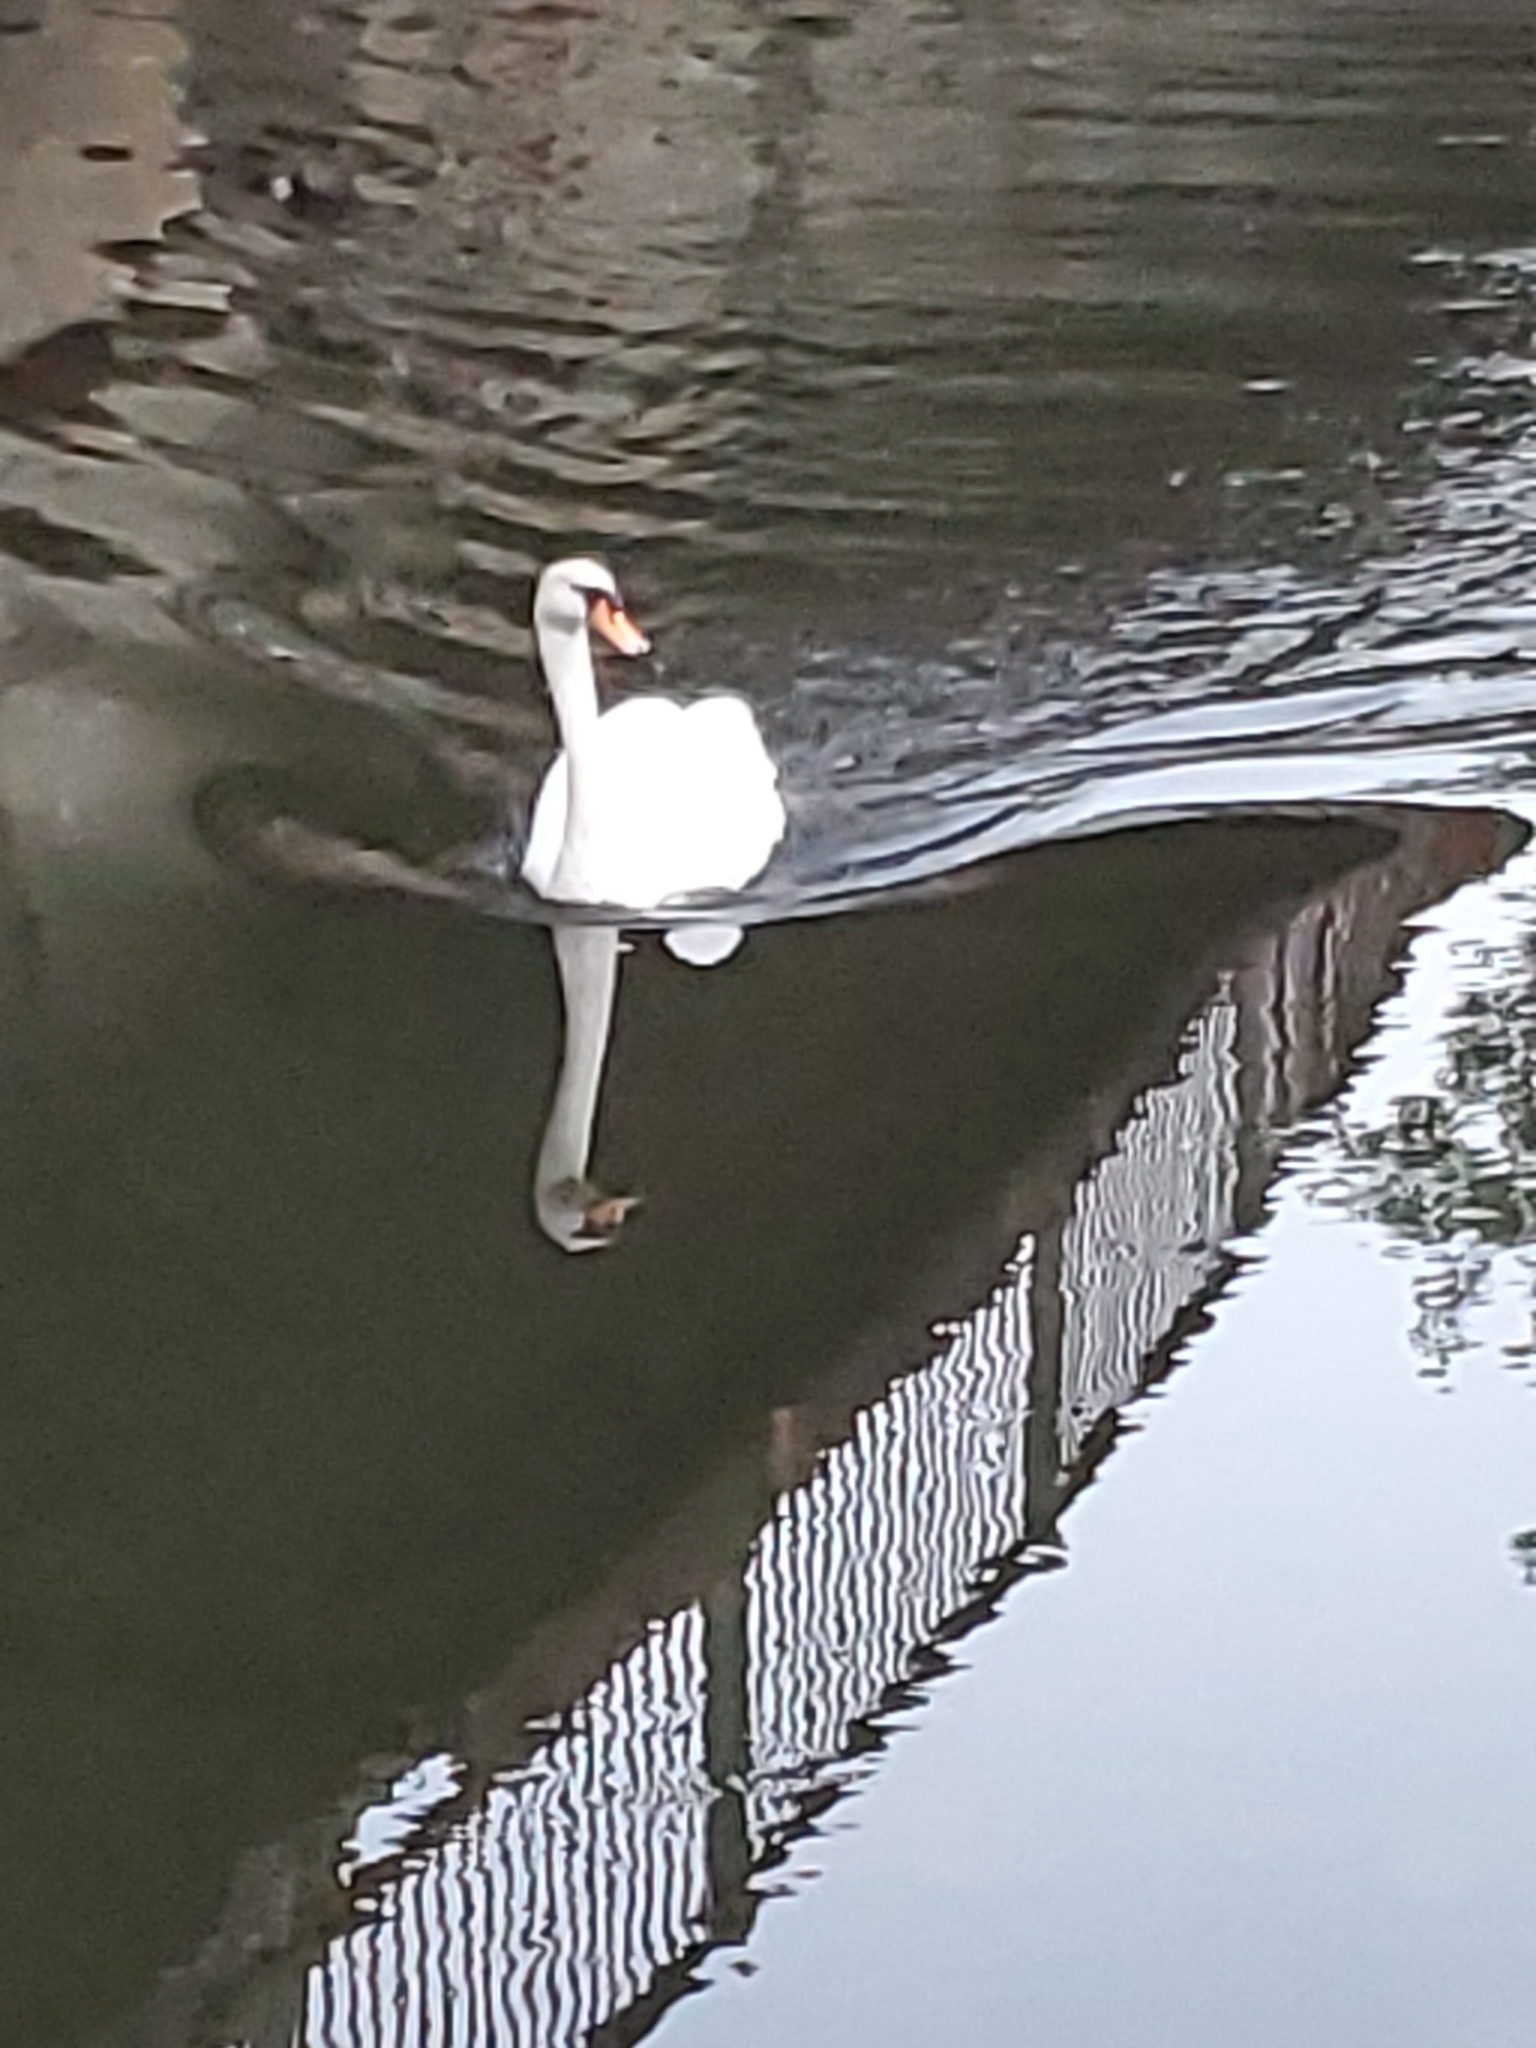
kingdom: Animalia
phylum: Chordata
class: Aves
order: Anseriformes
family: Anatidae
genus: Cygnus
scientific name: Cygnus olor
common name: Mute swan
